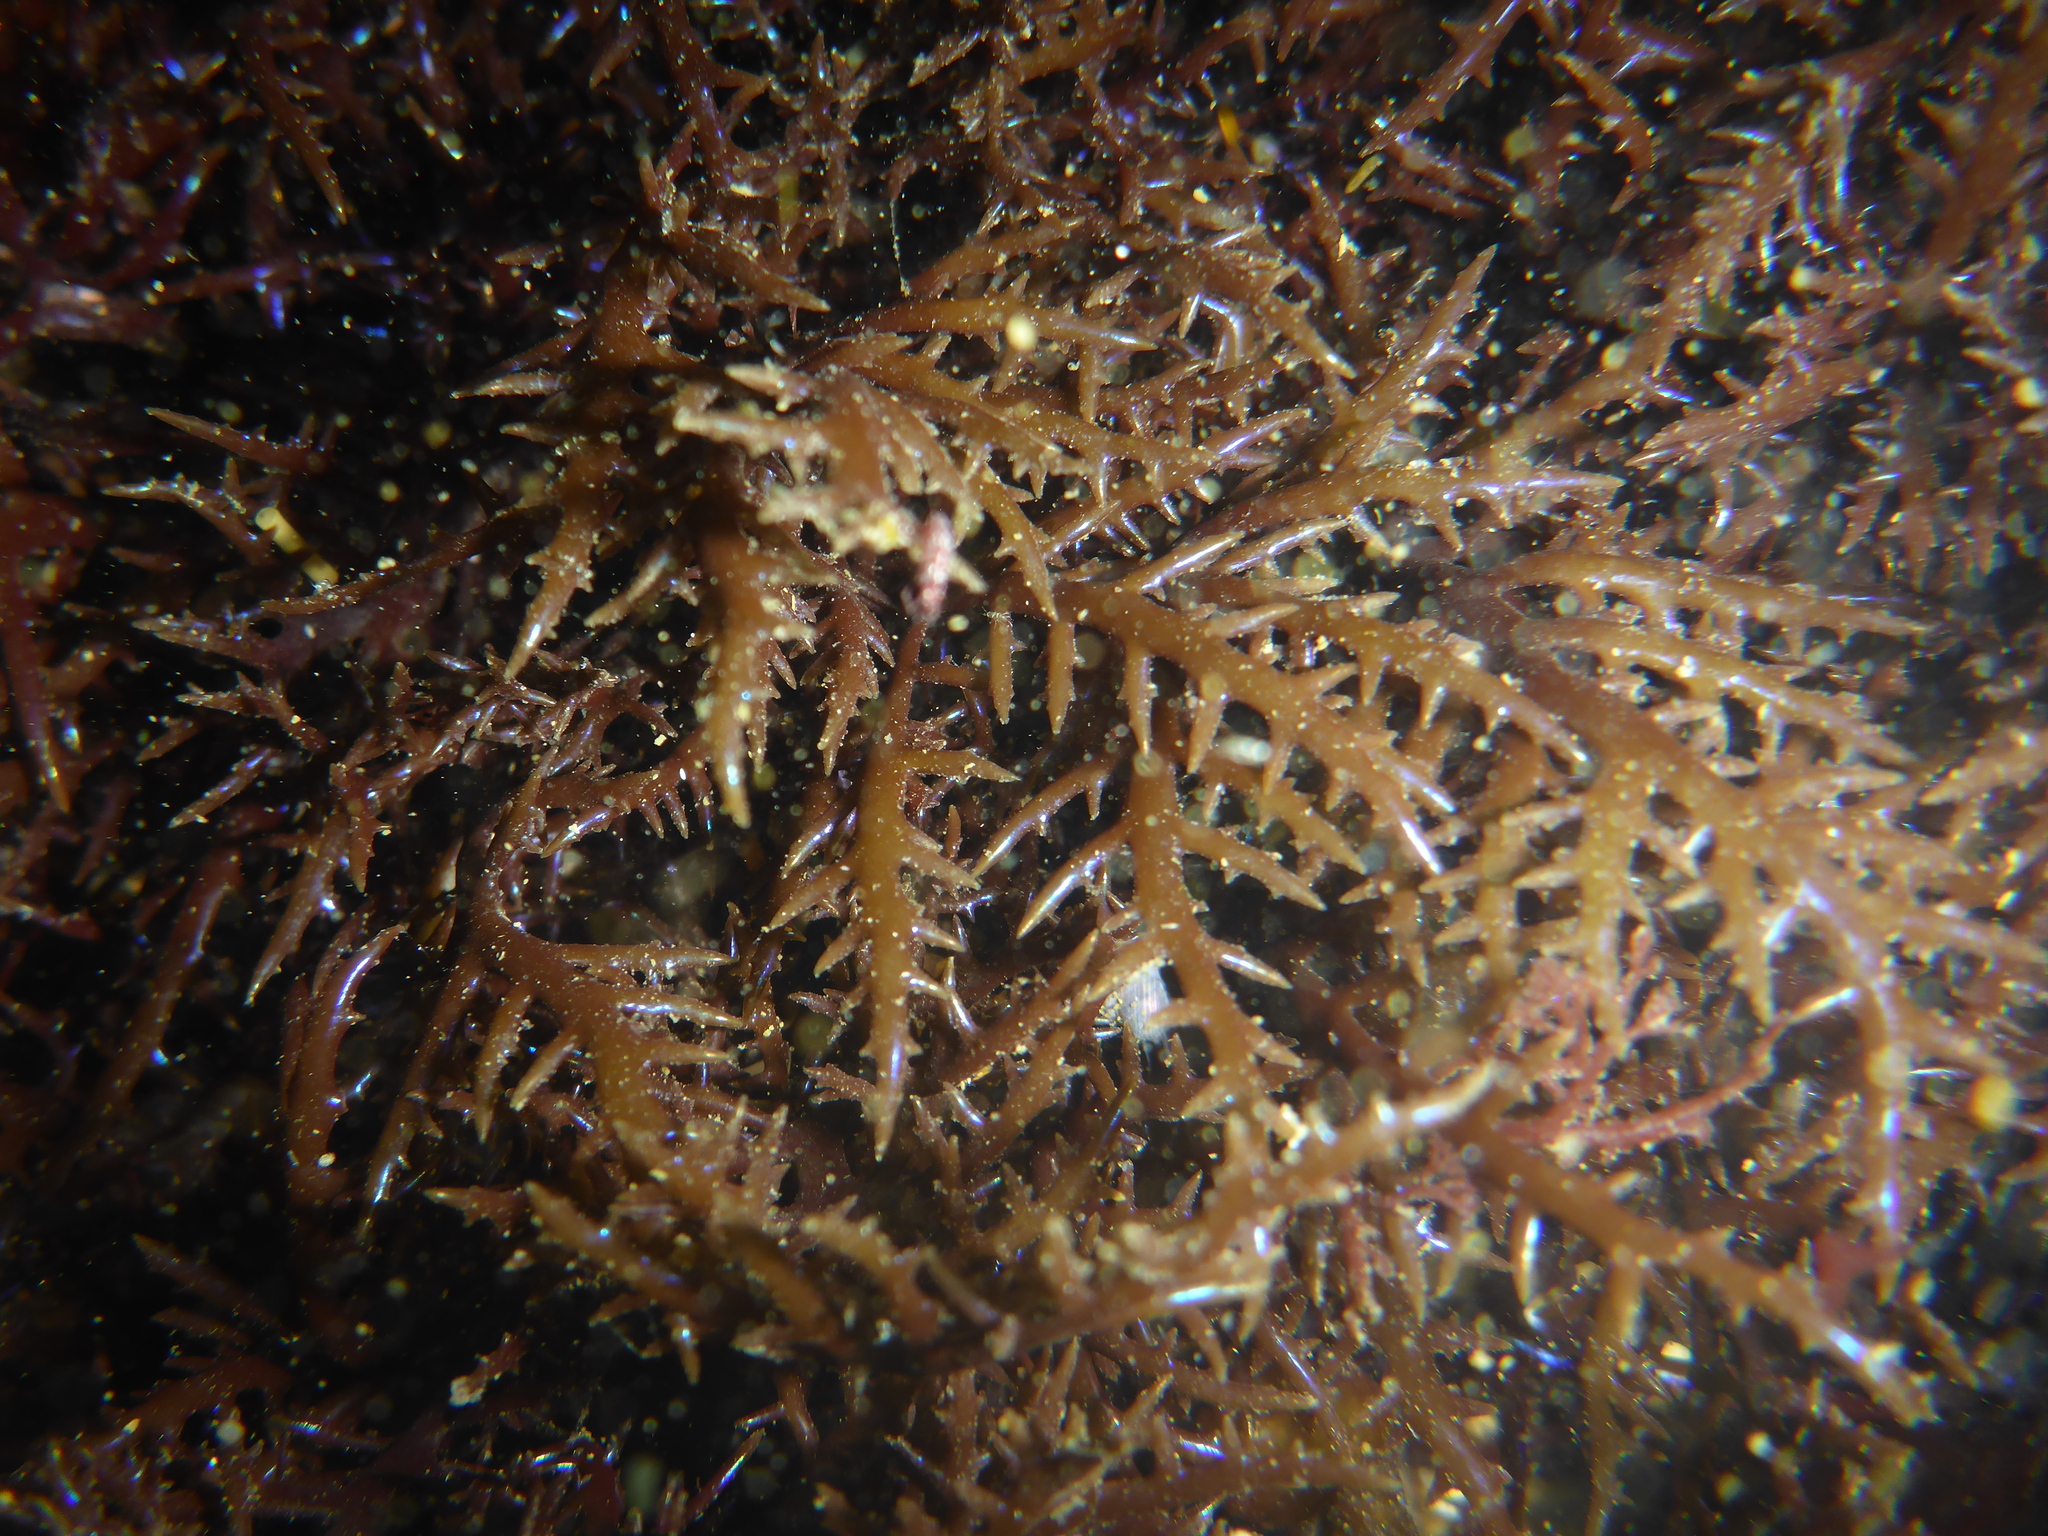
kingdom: Plantae
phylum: Rhodophyta
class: Florideophyceae
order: Gigartinales
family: Gigartinaceae
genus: Chondracanthus
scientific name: Chondracanthus canaliculatus
